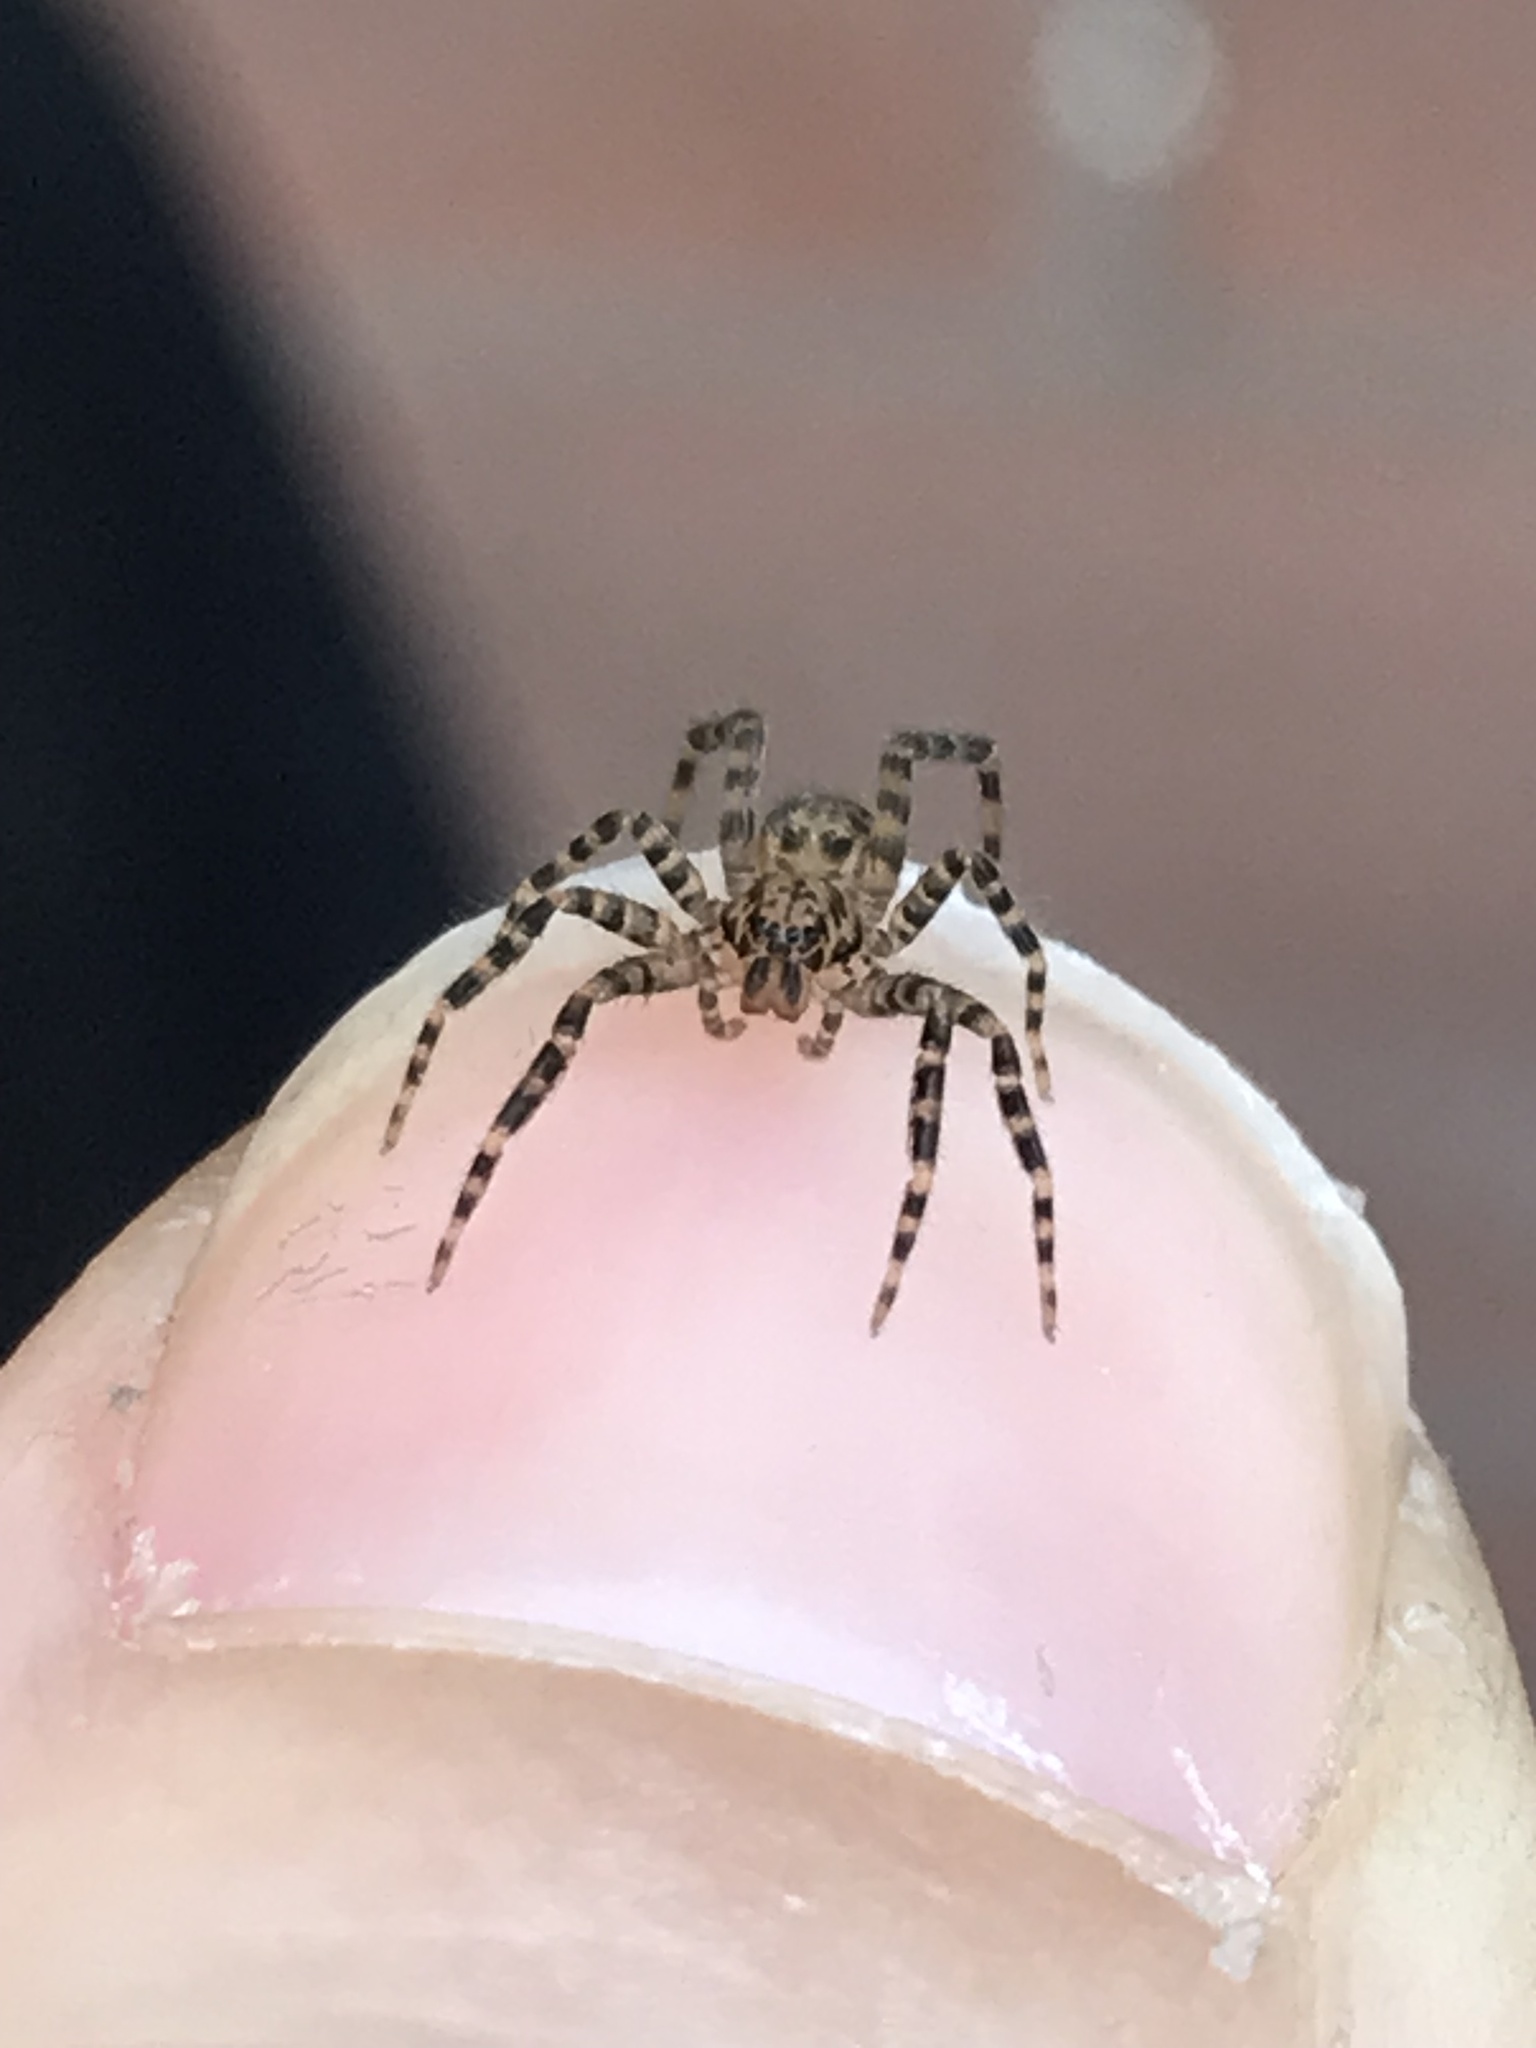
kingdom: Animalia
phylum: Arthropoda
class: Arachnida
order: Araneae
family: Ctenidae
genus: Asthenoctenus
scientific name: Asthenoctenus borellii
